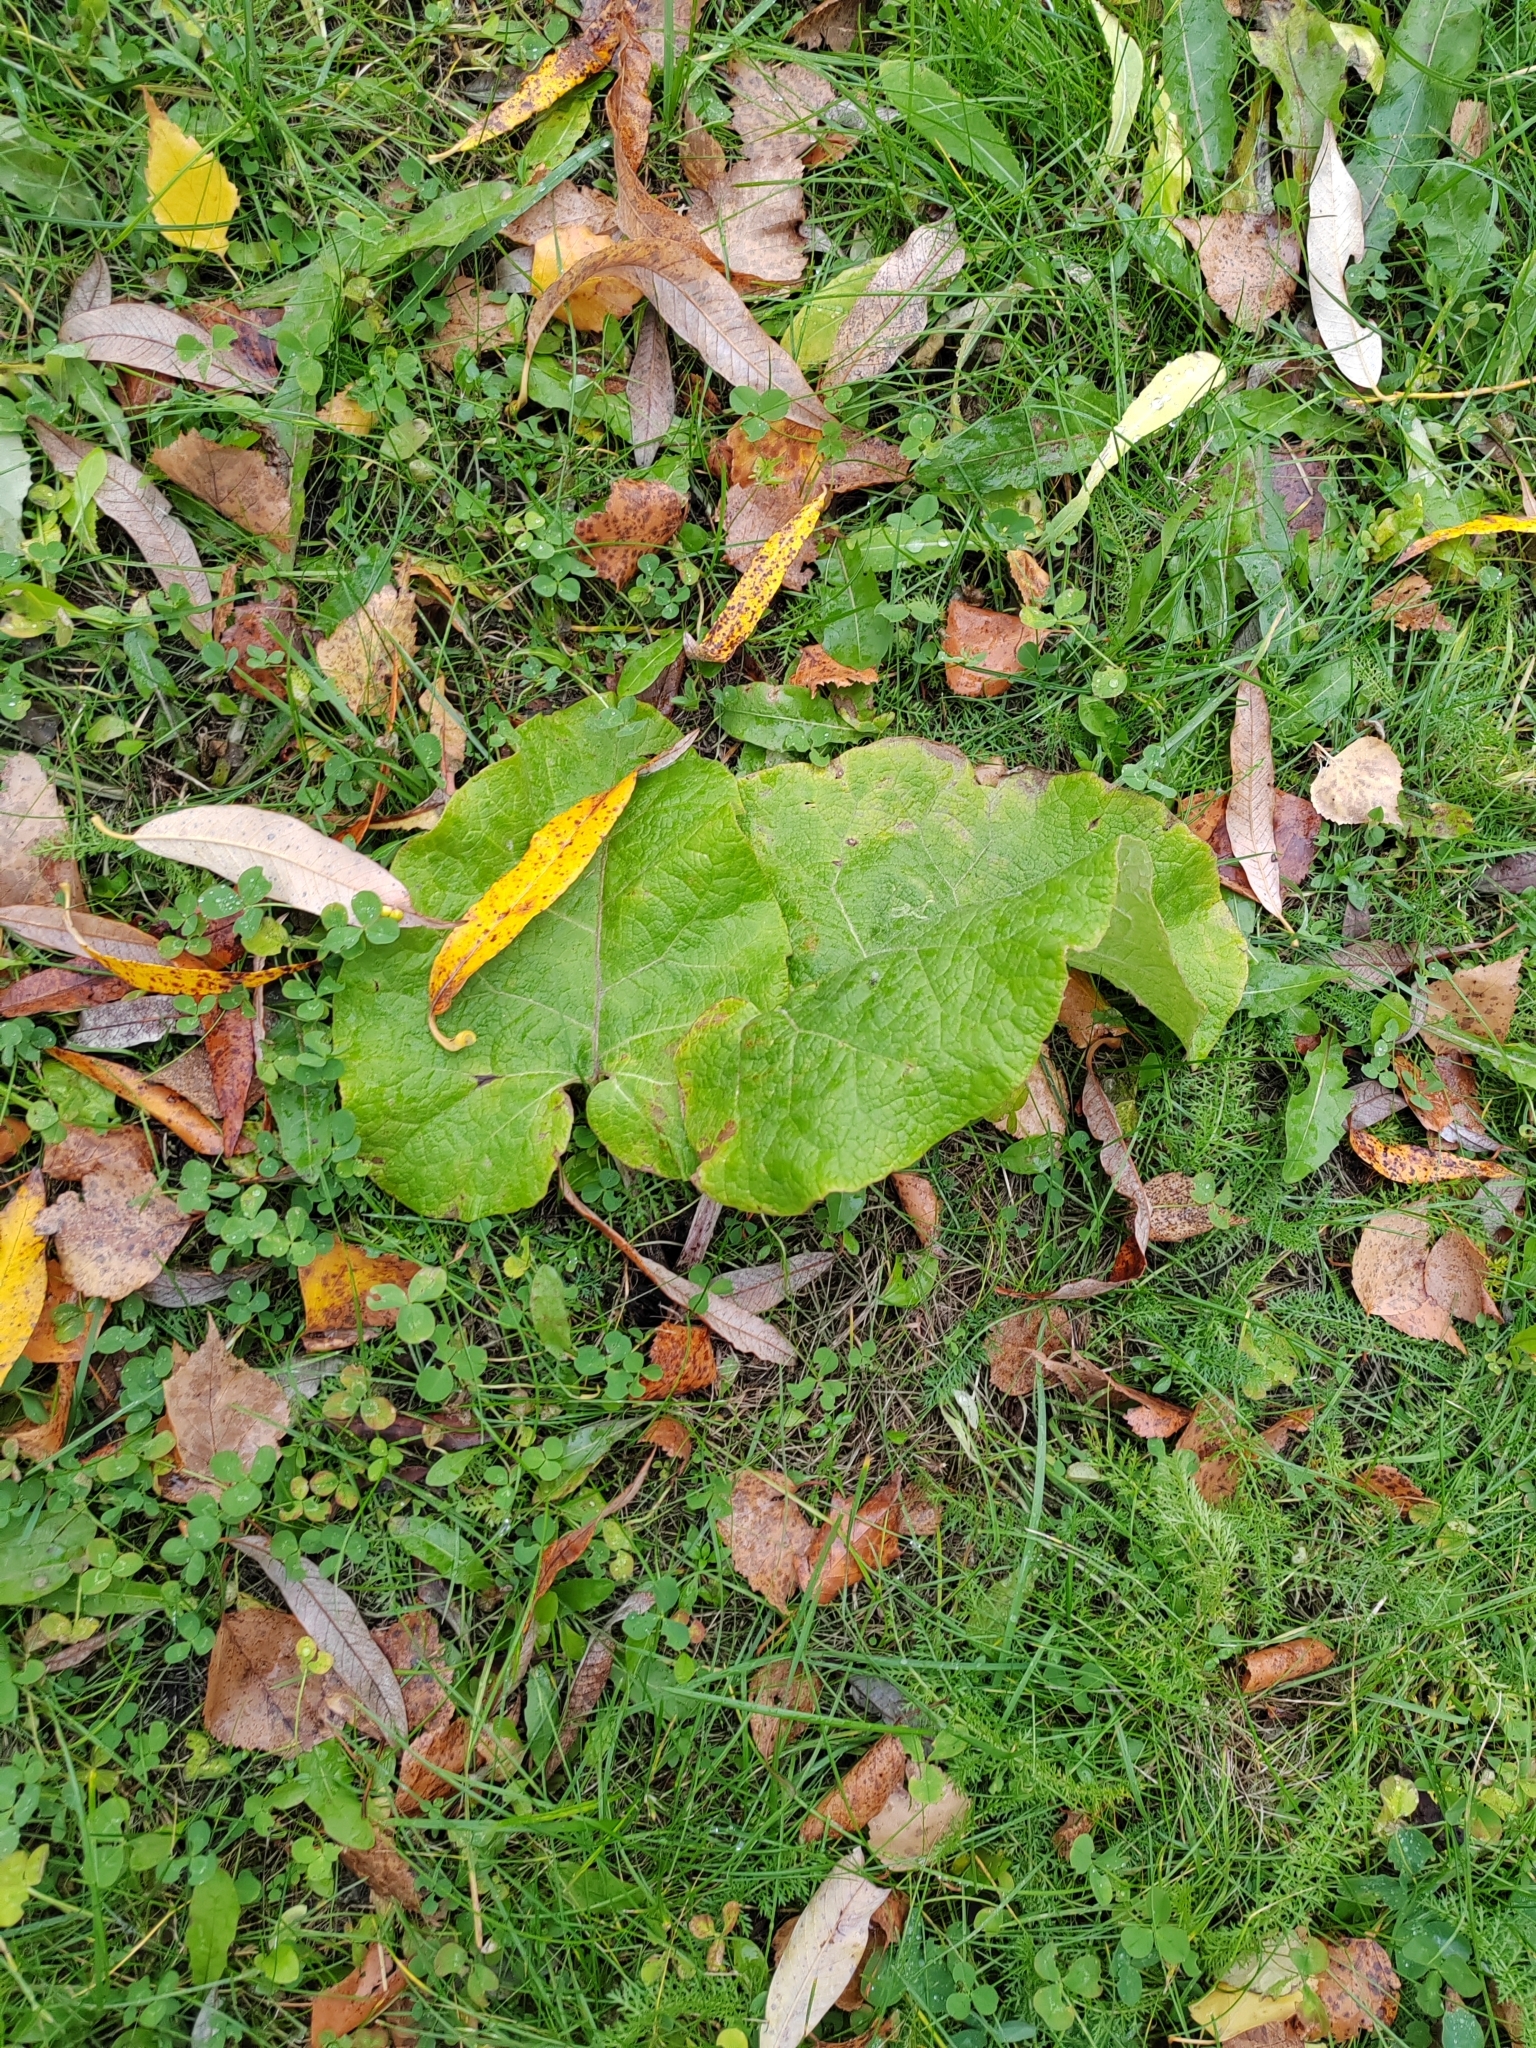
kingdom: Plantae
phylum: Tracheophyta
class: Magnoliopsida
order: Asterales
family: Asteraceae
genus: Arctium
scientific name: Arctium tomentosum
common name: Woolly burdock
